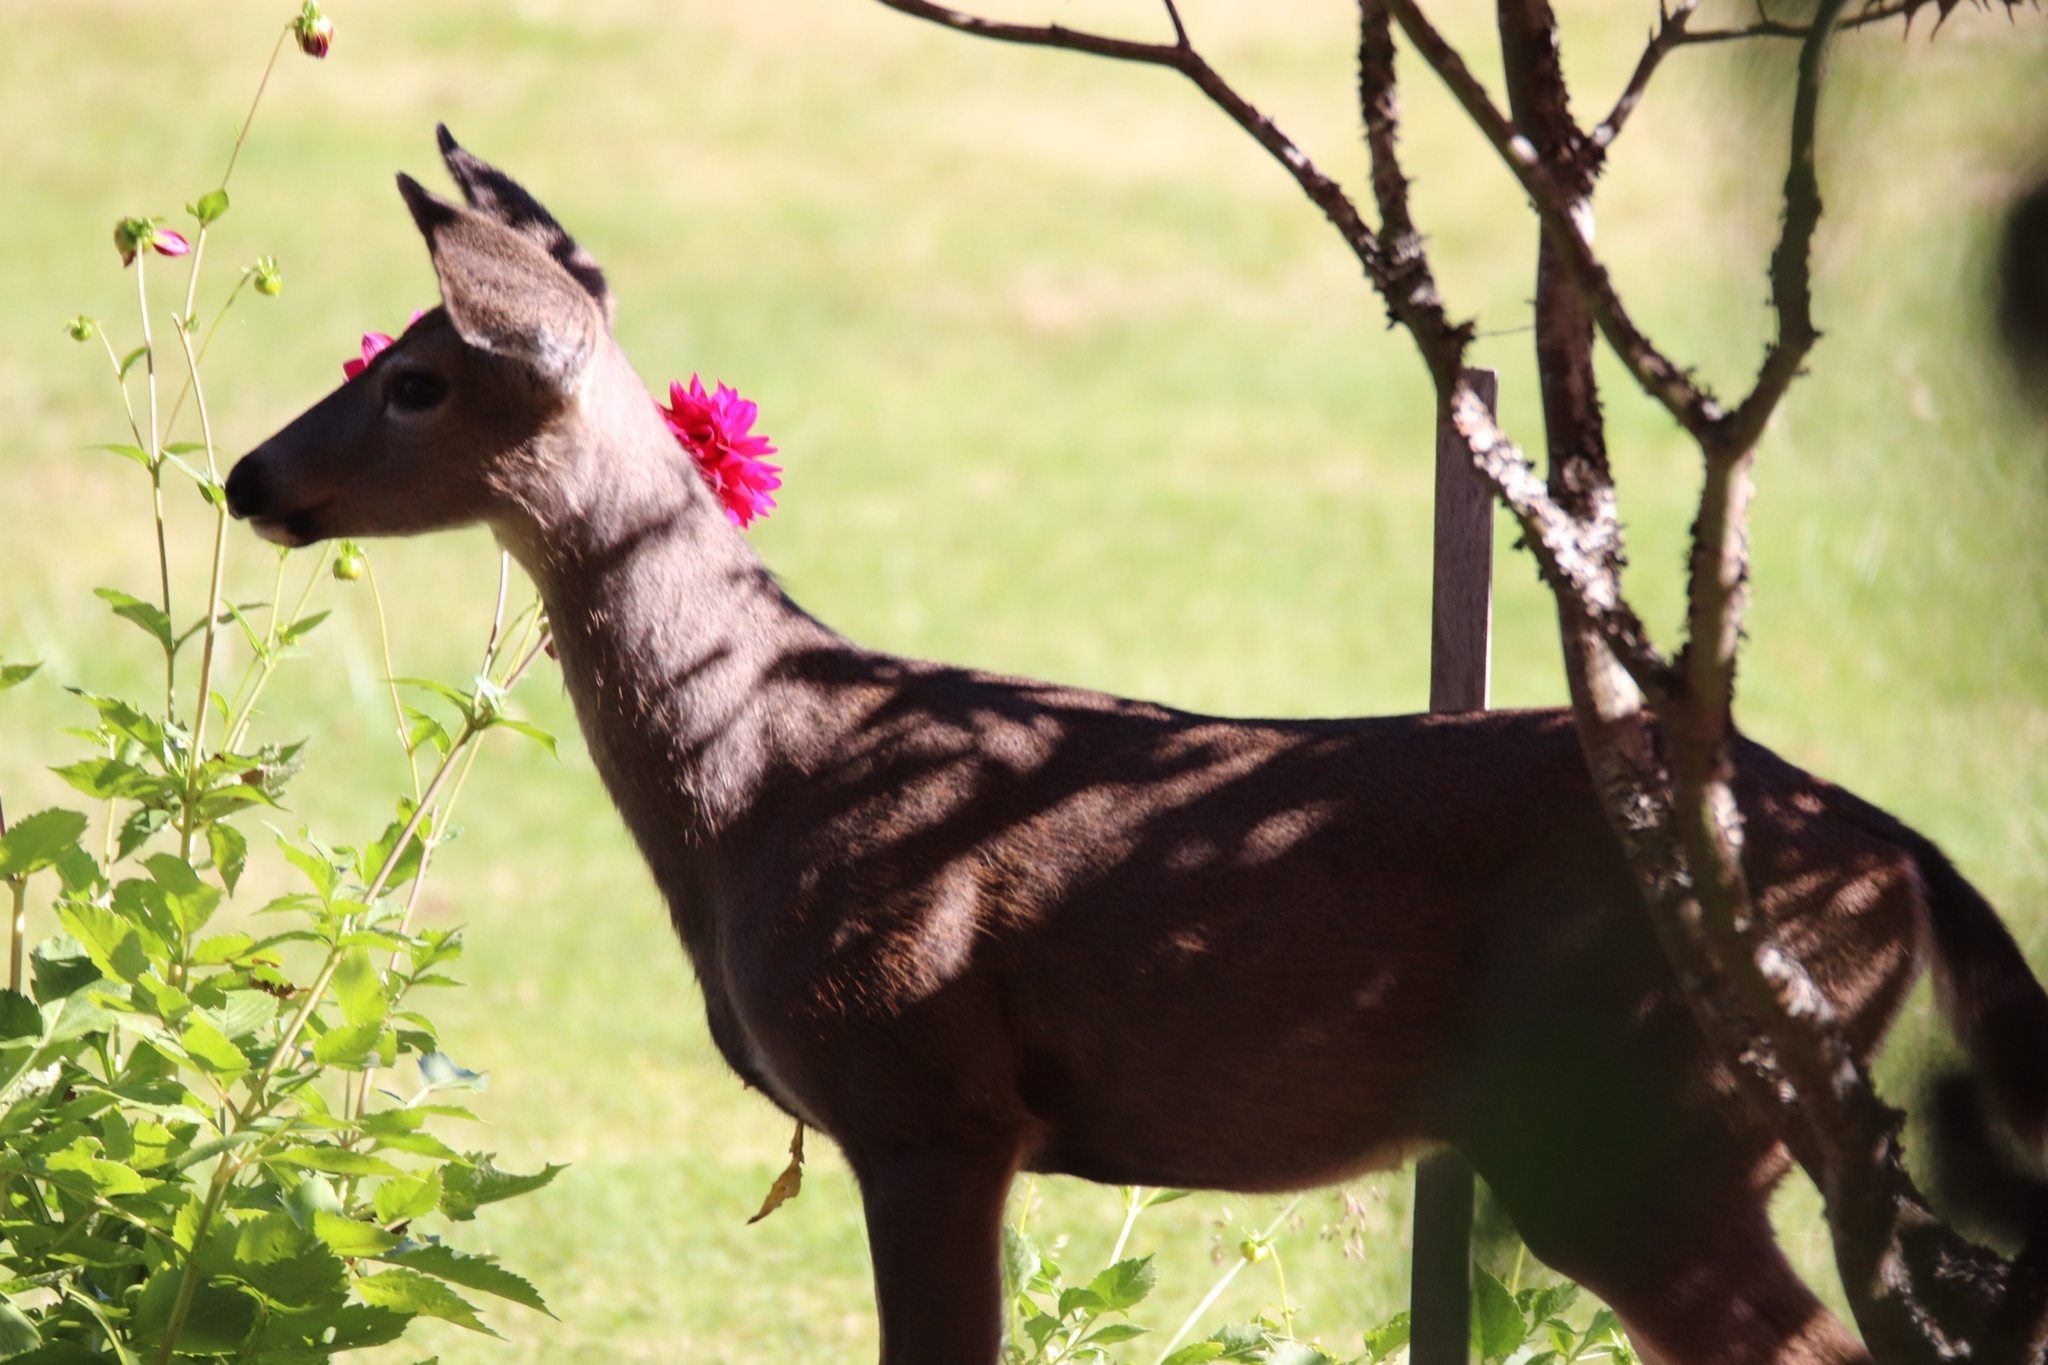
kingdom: Animalia
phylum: Chordata
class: Mammalia
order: Artiodactyla
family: Cervidae
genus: Odocoileus
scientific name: Odocoileus hemionus
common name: Mule deer
